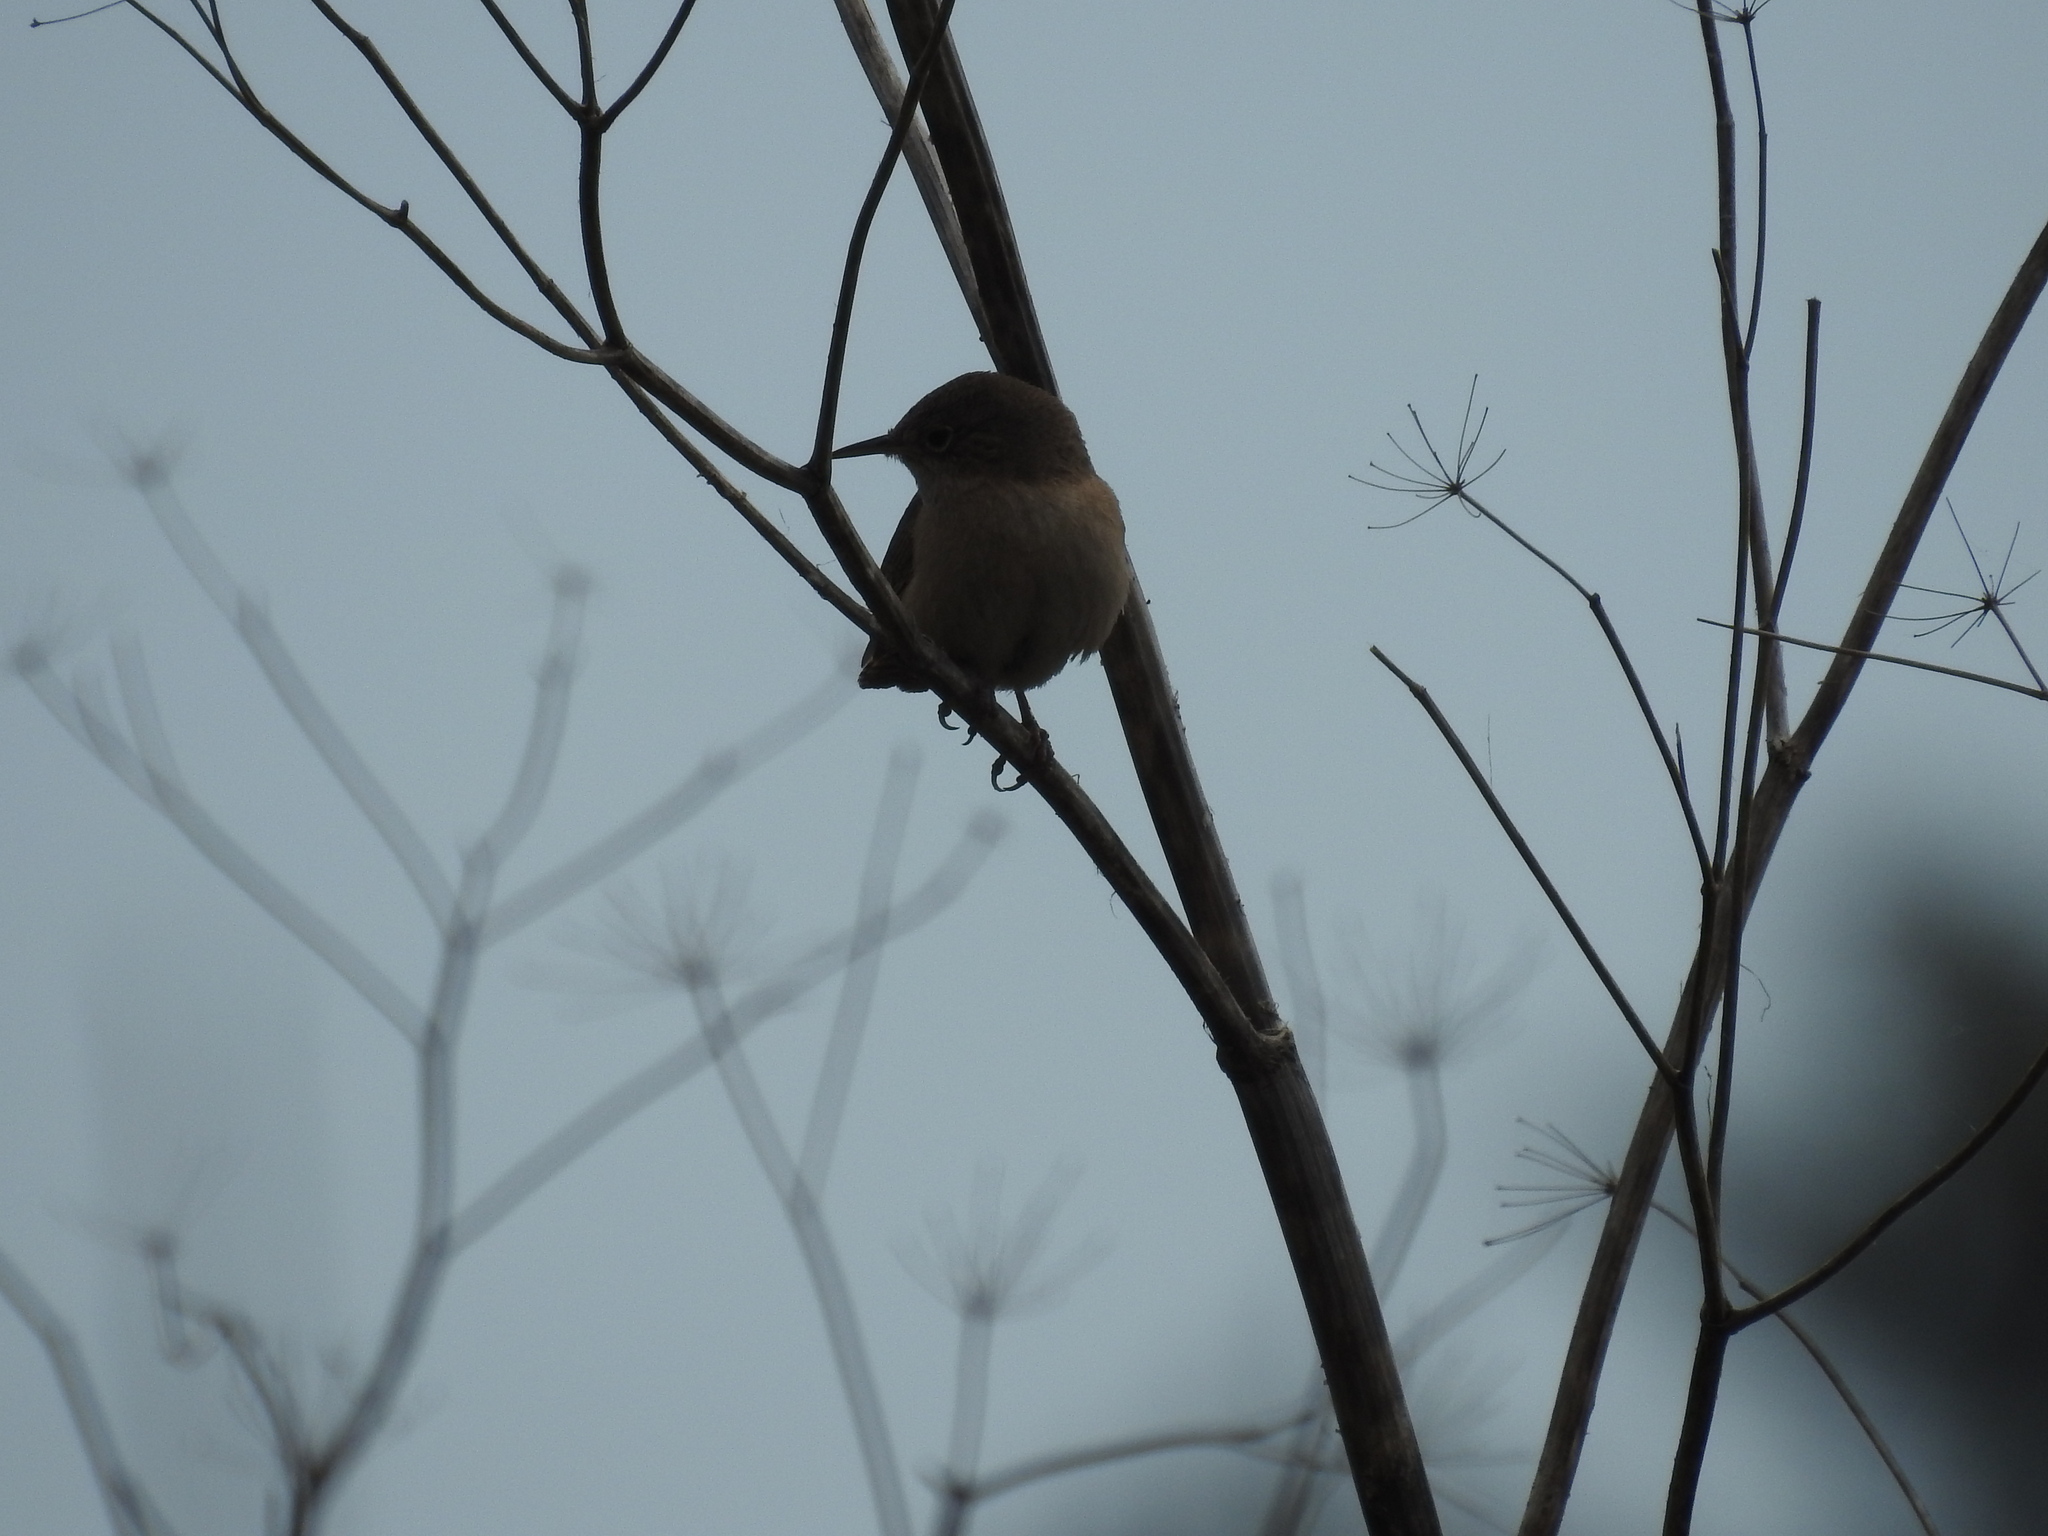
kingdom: Animalia
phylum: Chordata
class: Aves
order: Passeriformes
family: Troglodytidae
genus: Troglodytes
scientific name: Troglodytes aedon
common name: House wren
